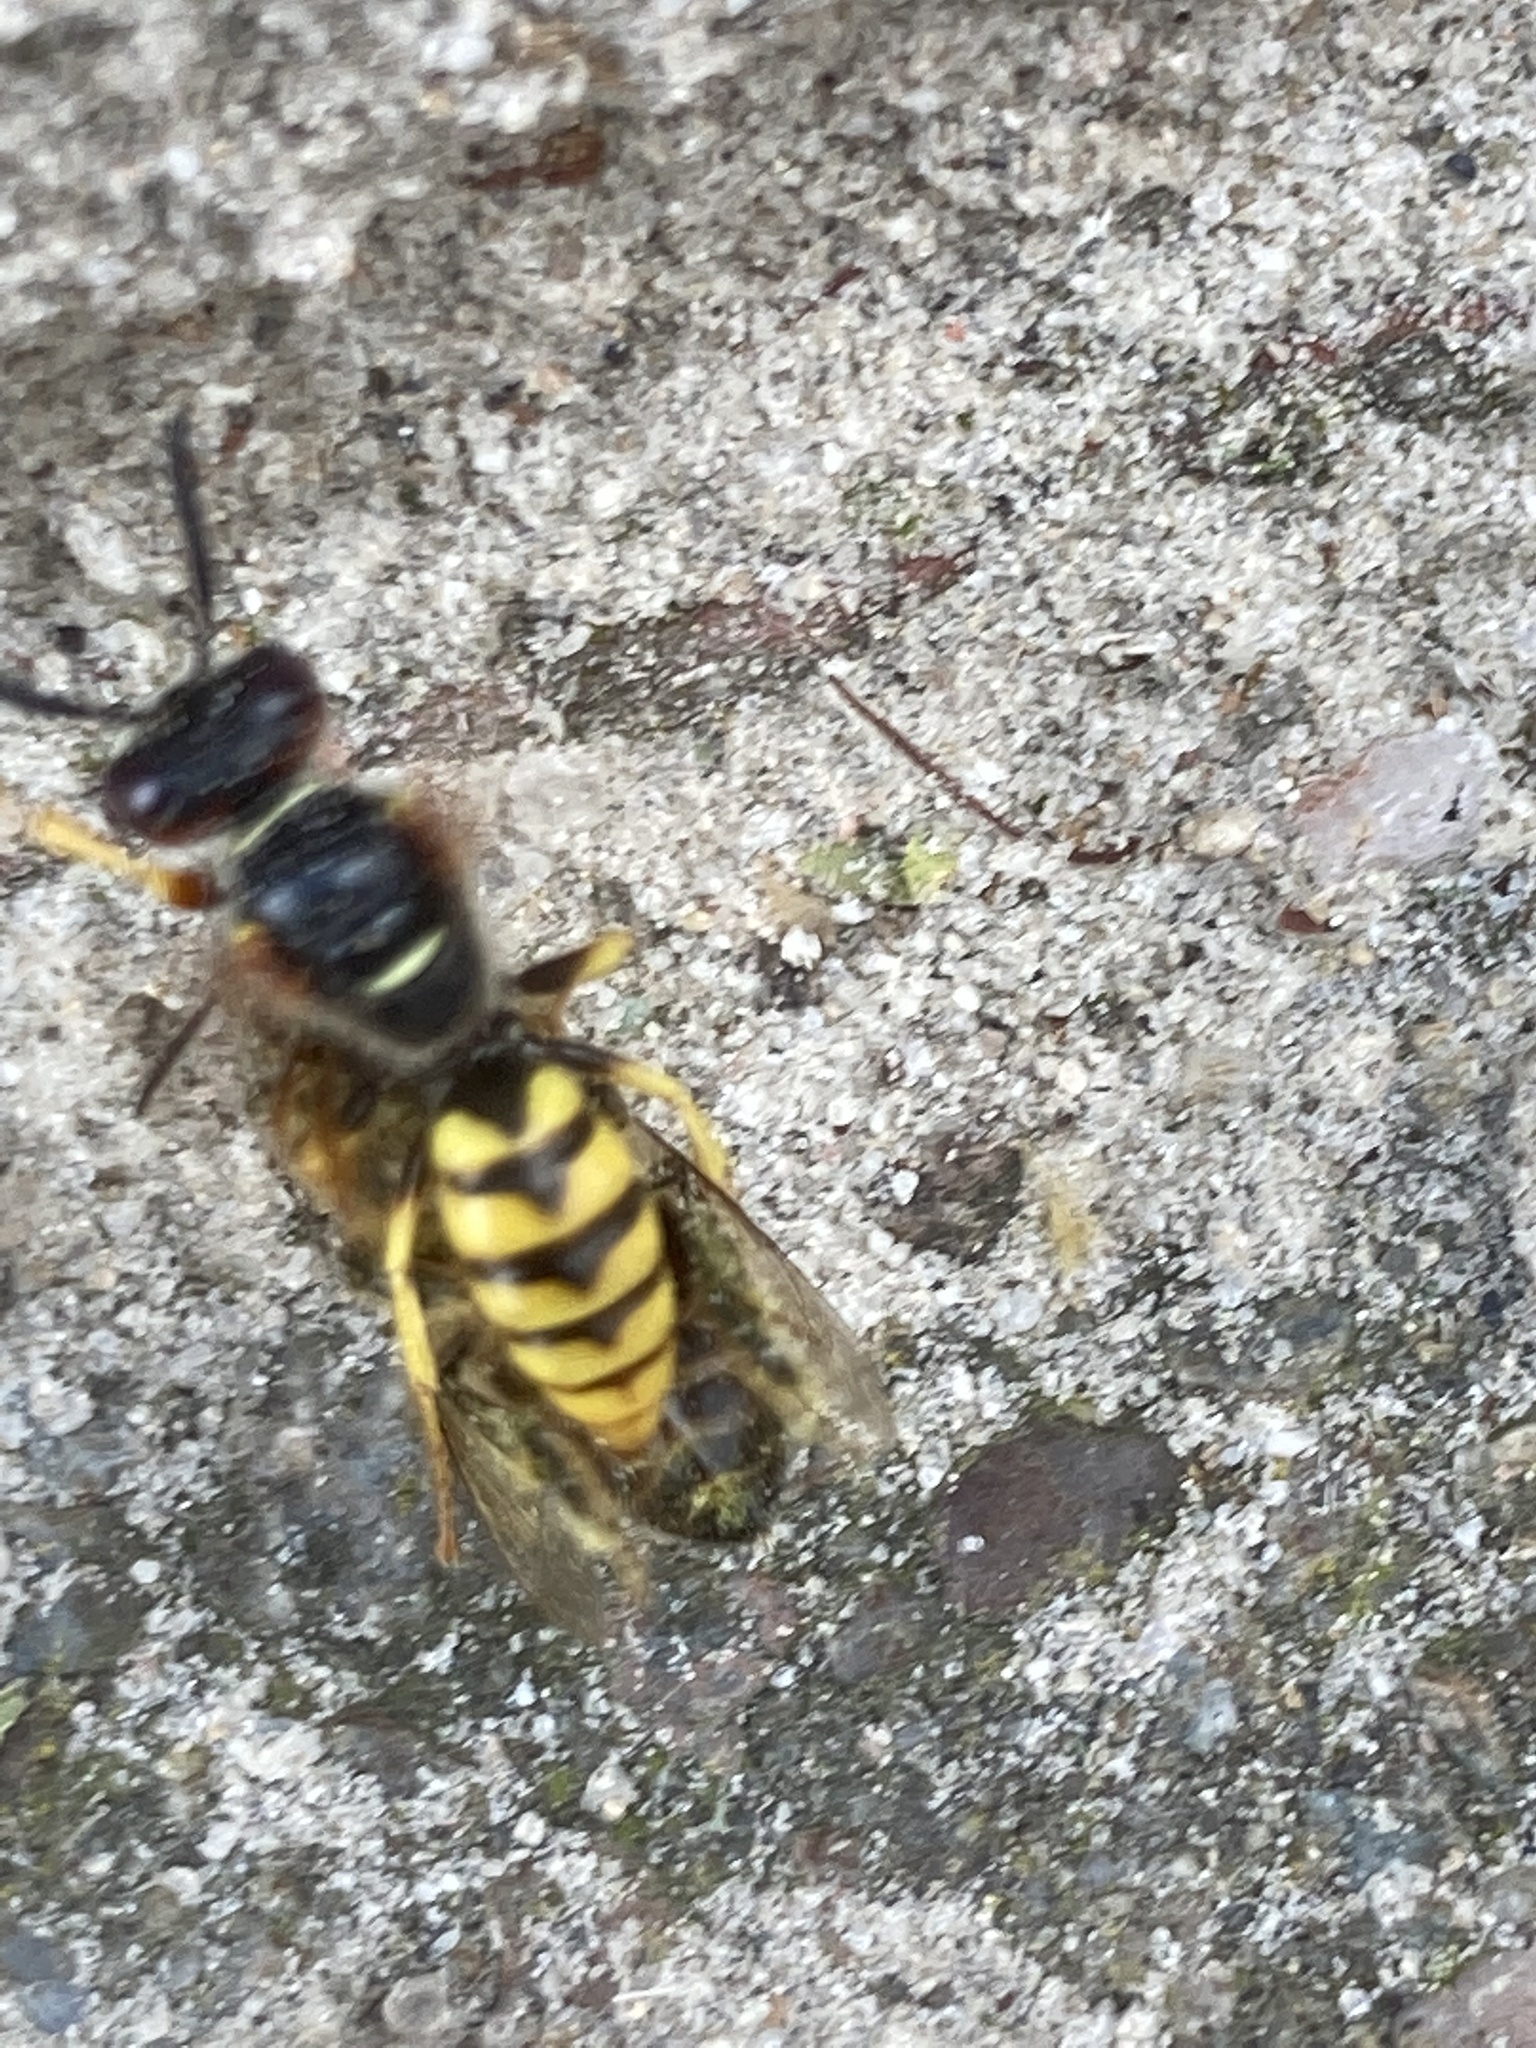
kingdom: Animalia
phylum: Arthropoda
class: Insecta
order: Hymenoptera
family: Crabronidae
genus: Philanthus
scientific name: Philanthus triangulum
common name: Bee wolf
